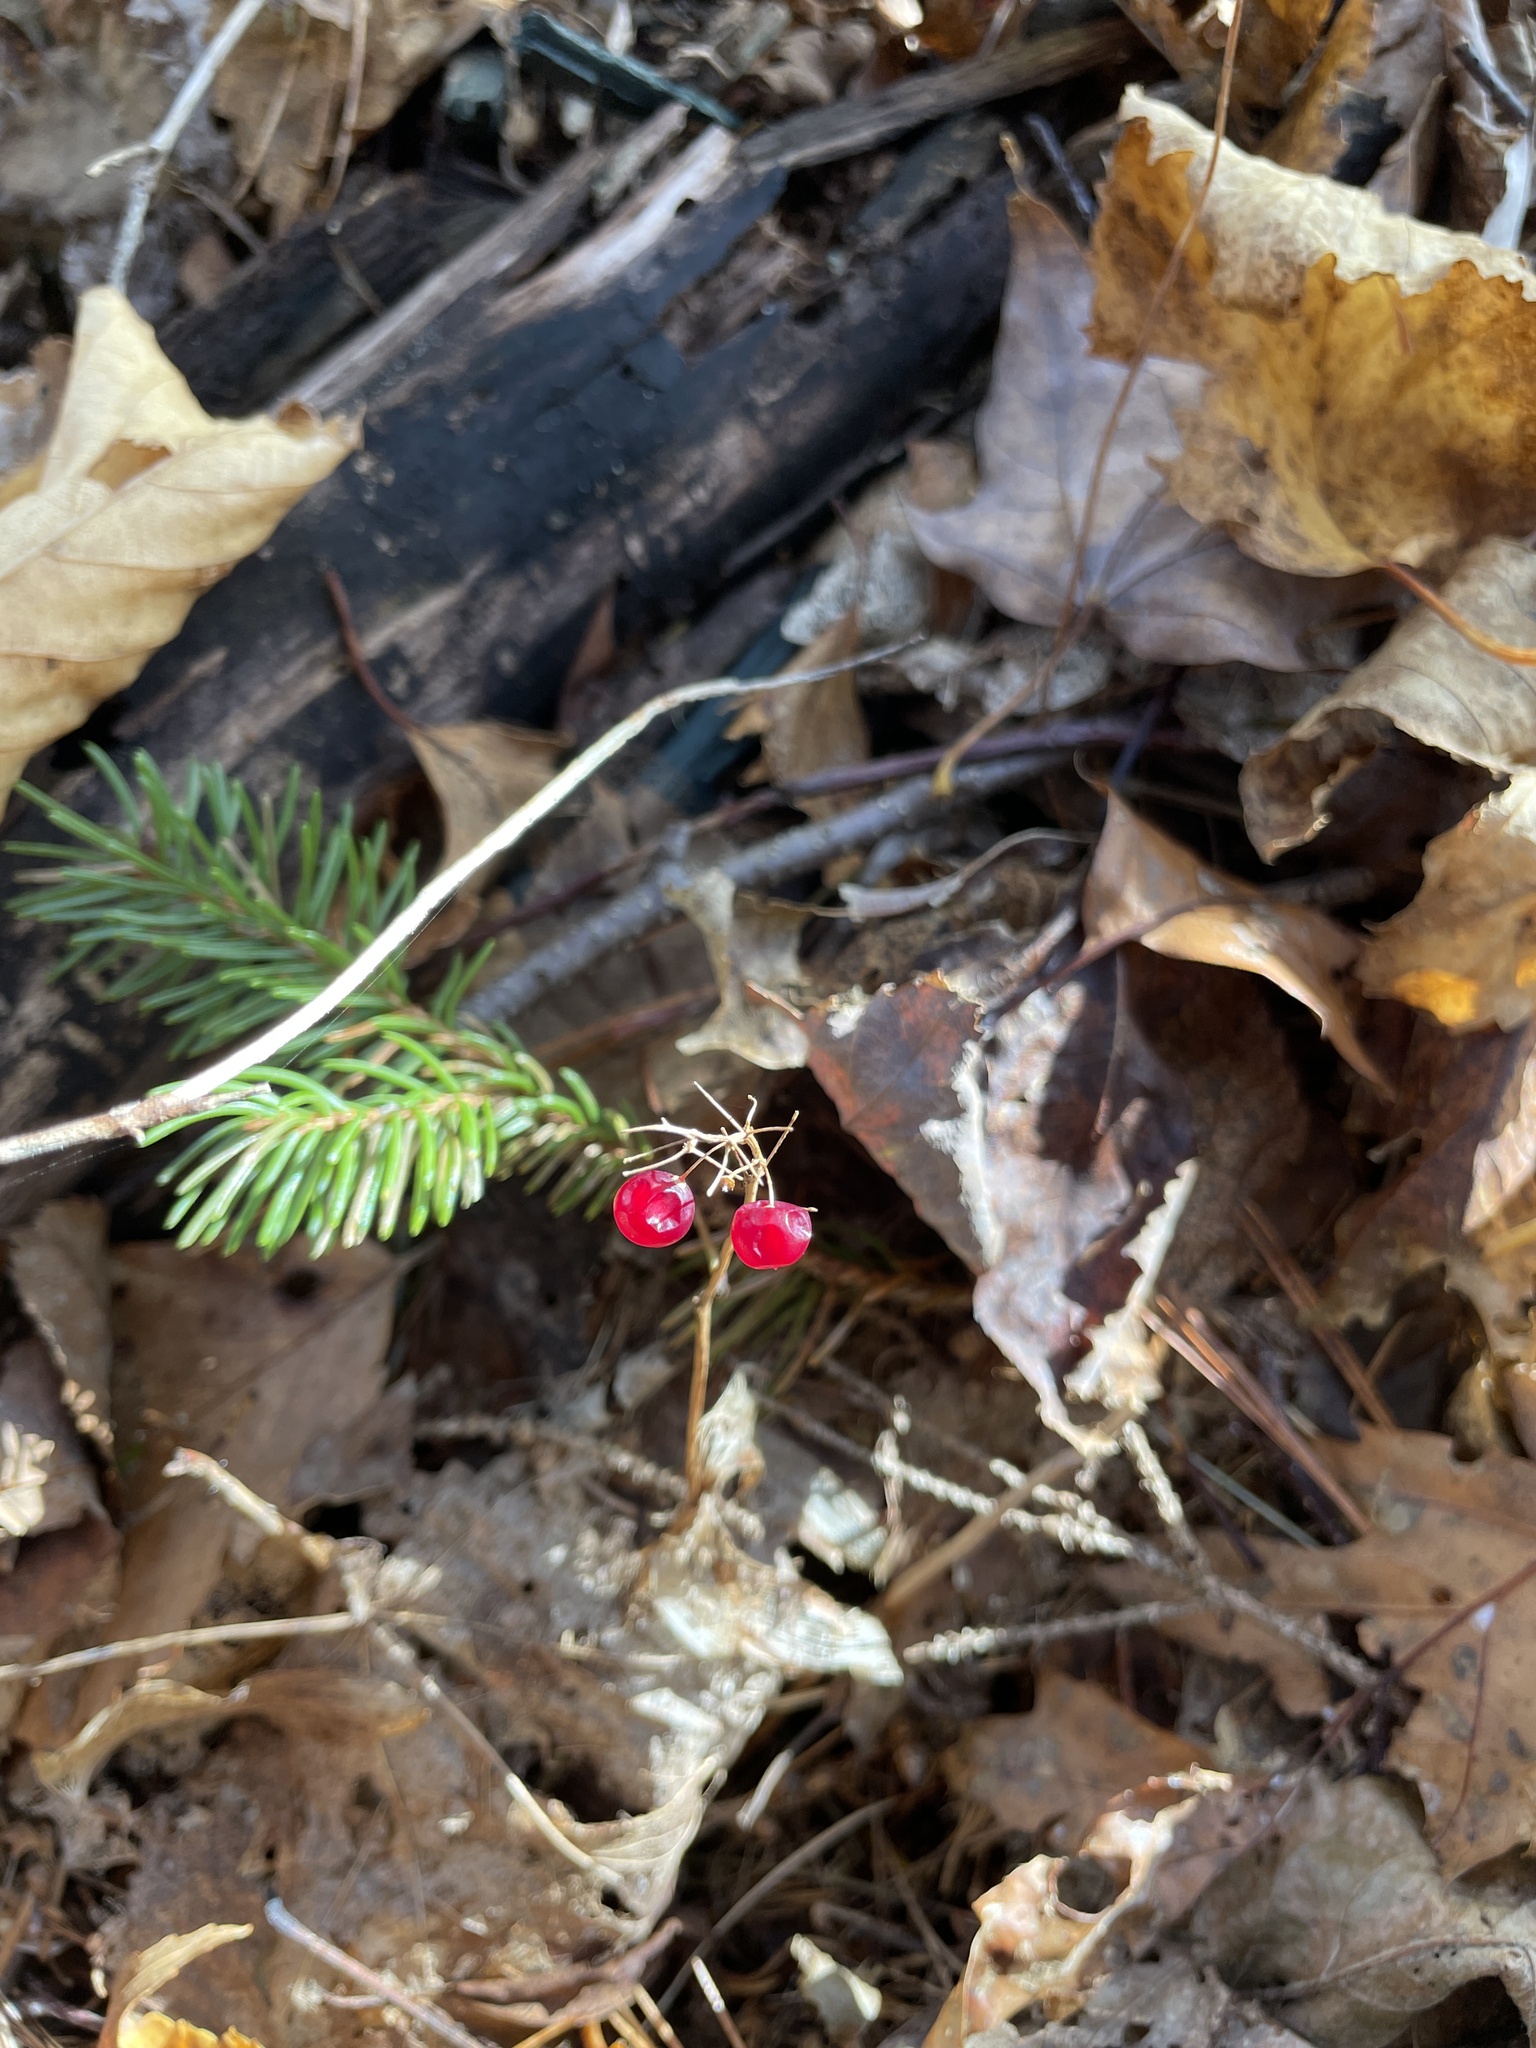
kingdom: Plantae
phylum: Tracheophyta
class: Liliopsida
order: Asparagales
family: Asparagaceae
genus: Maianthemum
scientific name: Maianthemum canadense
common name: False lily-of-the-valley
